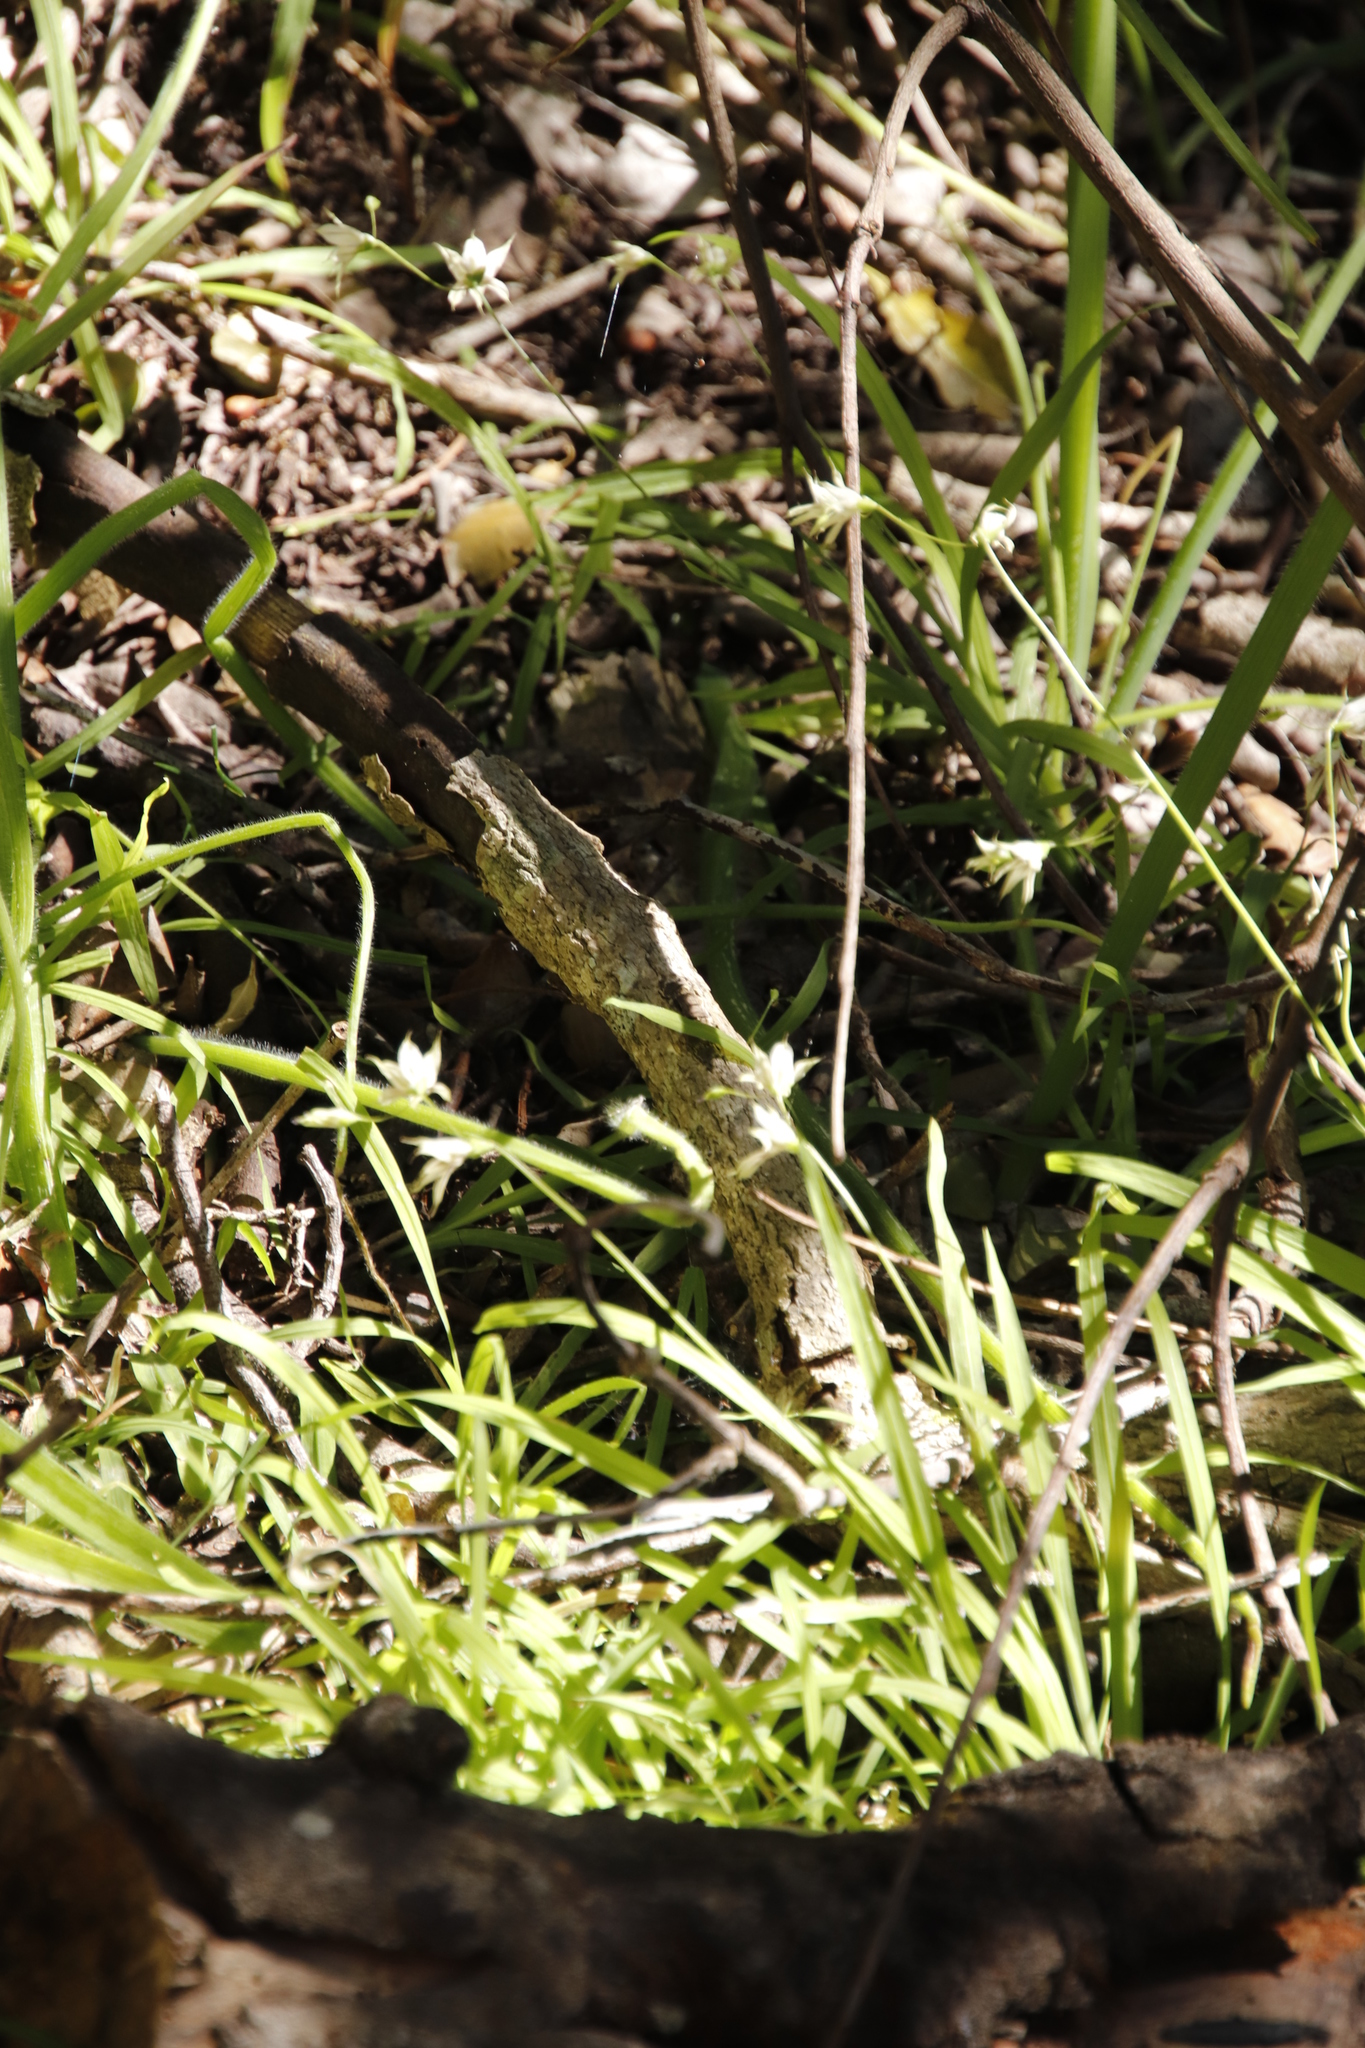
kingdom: Plantae
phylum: Tracheophyta
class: Liliopsida
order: Asparagales
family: Iridaceae
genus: Melasphaerula
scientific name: Melasphaerula graminea
